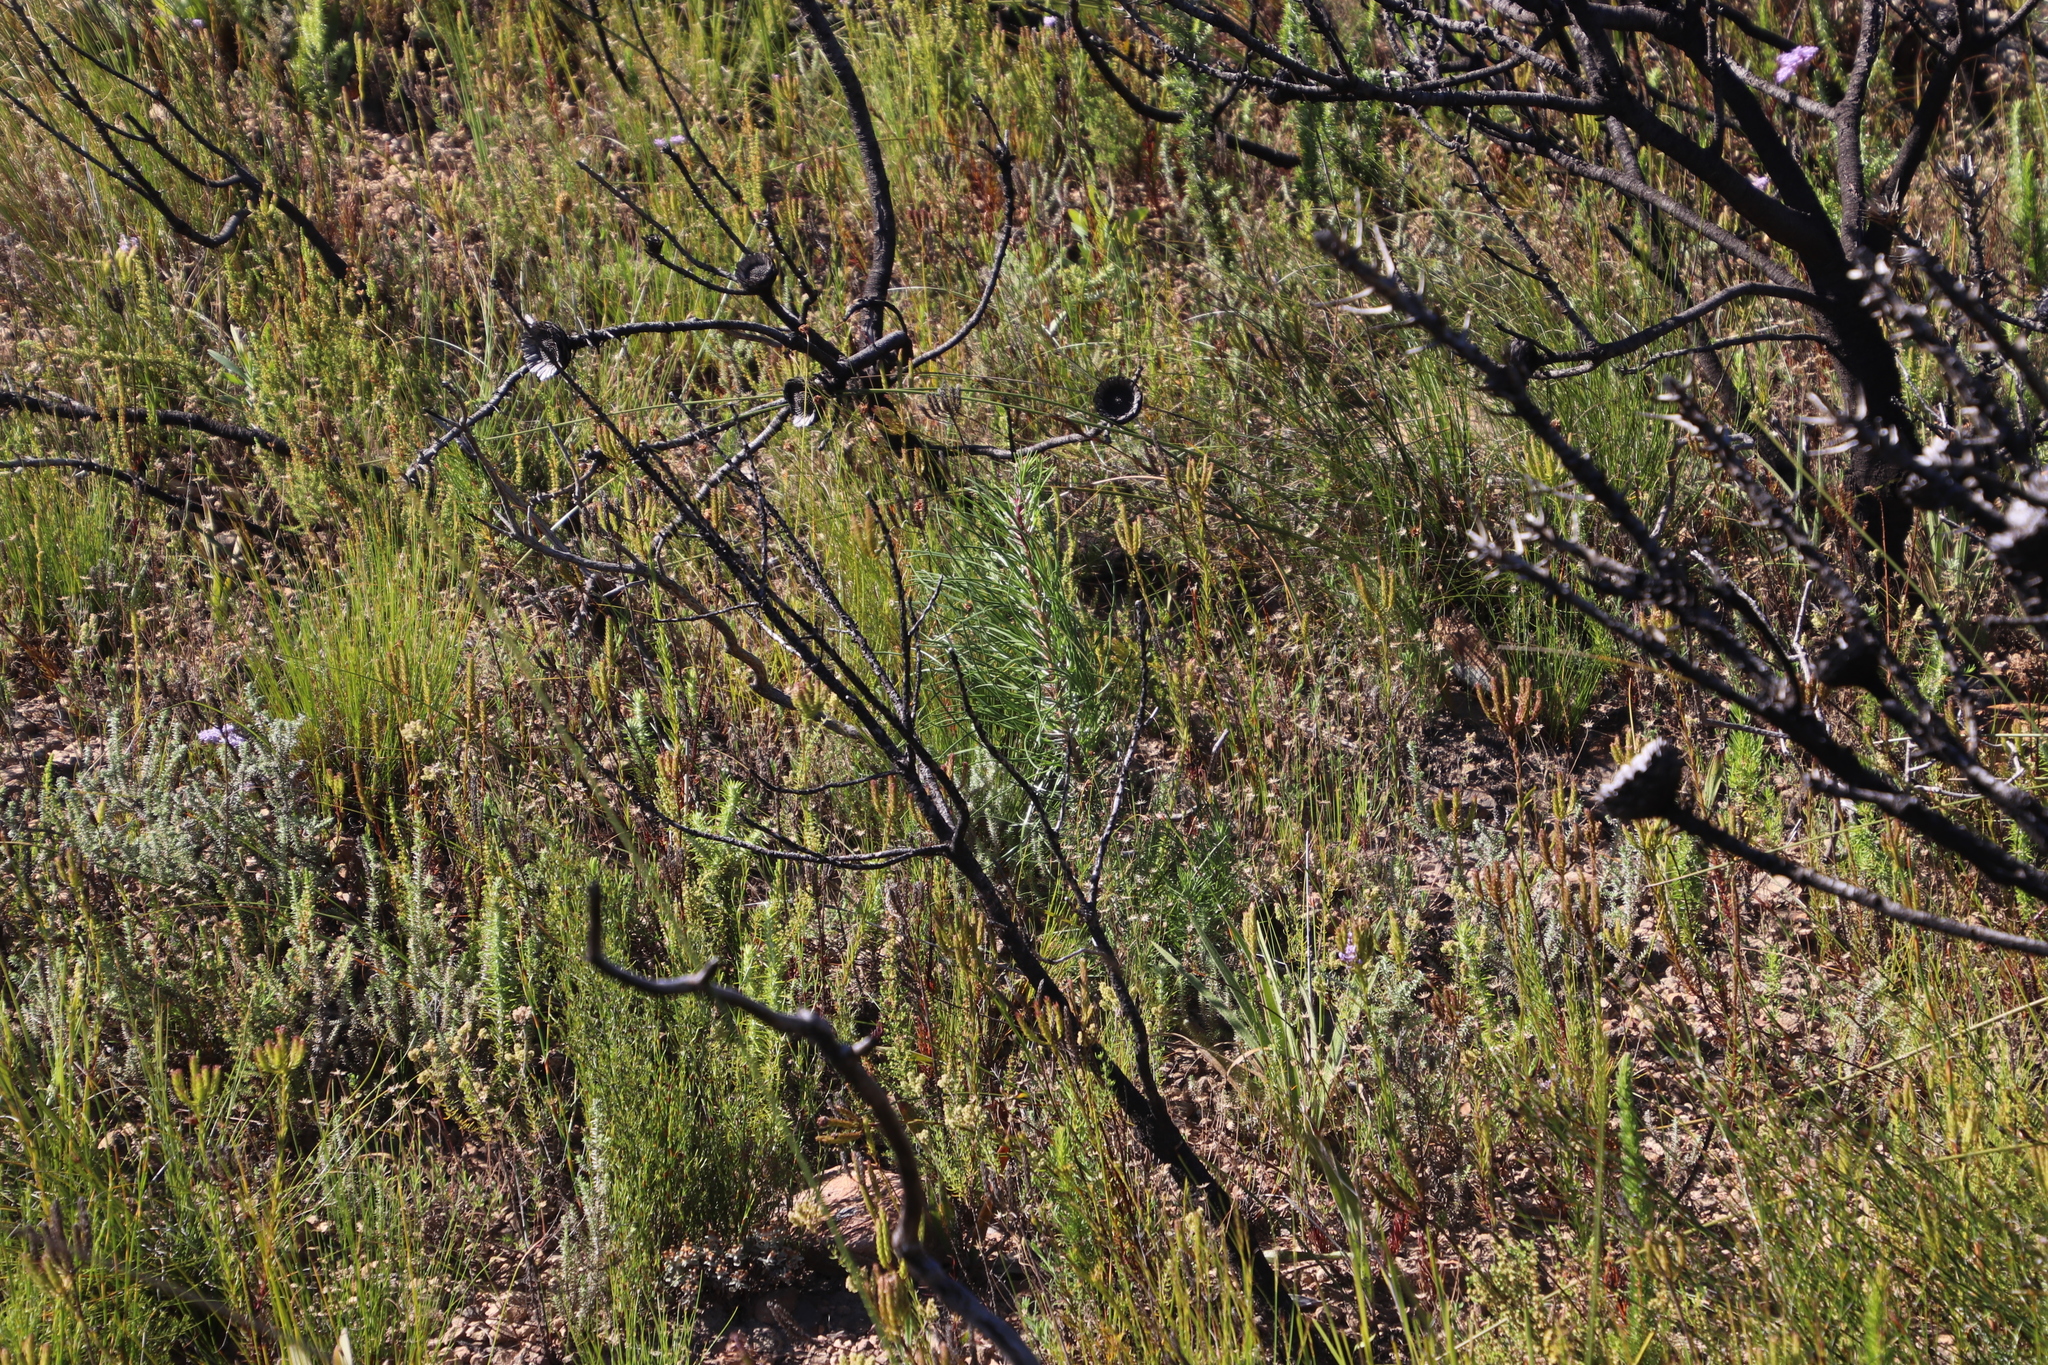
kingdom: Plantae
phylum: Tracheophyta
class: Pinopsida
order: Pinales
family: Pinaceae
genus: Pinus
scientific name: Pinus pinaster
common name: Maritime pine
